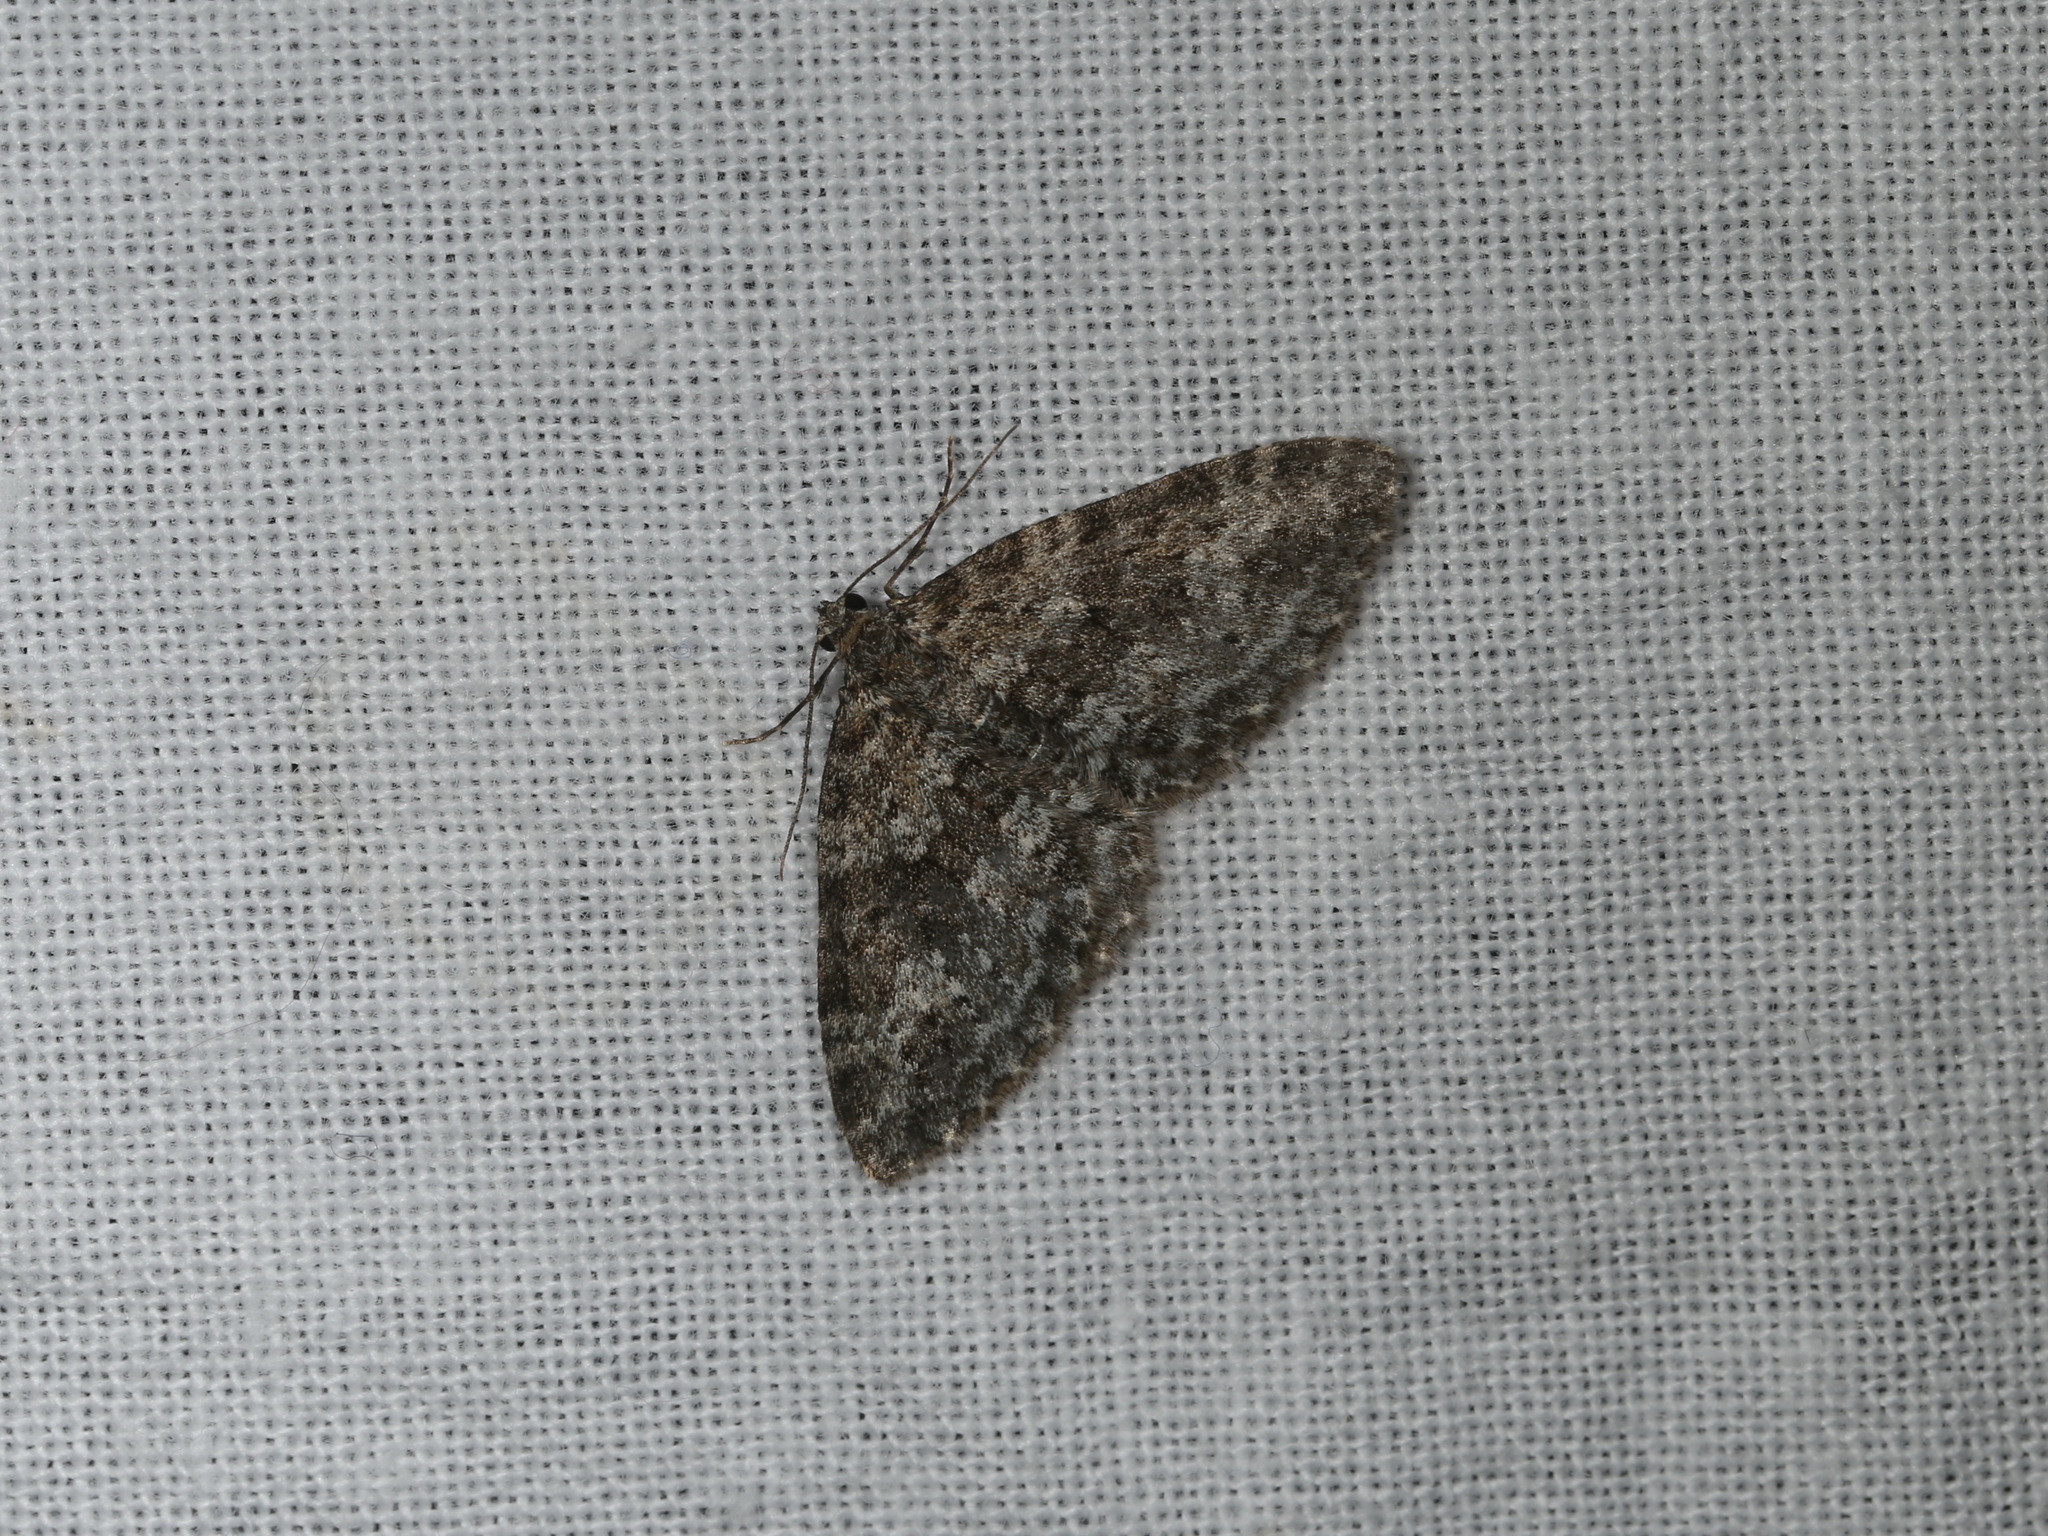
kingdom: Animalia
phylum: Arthropoda
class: Insecta
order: Lepidoptera
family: Geometridae
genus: Aponotoreas
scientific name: Aponotoreas dascia
